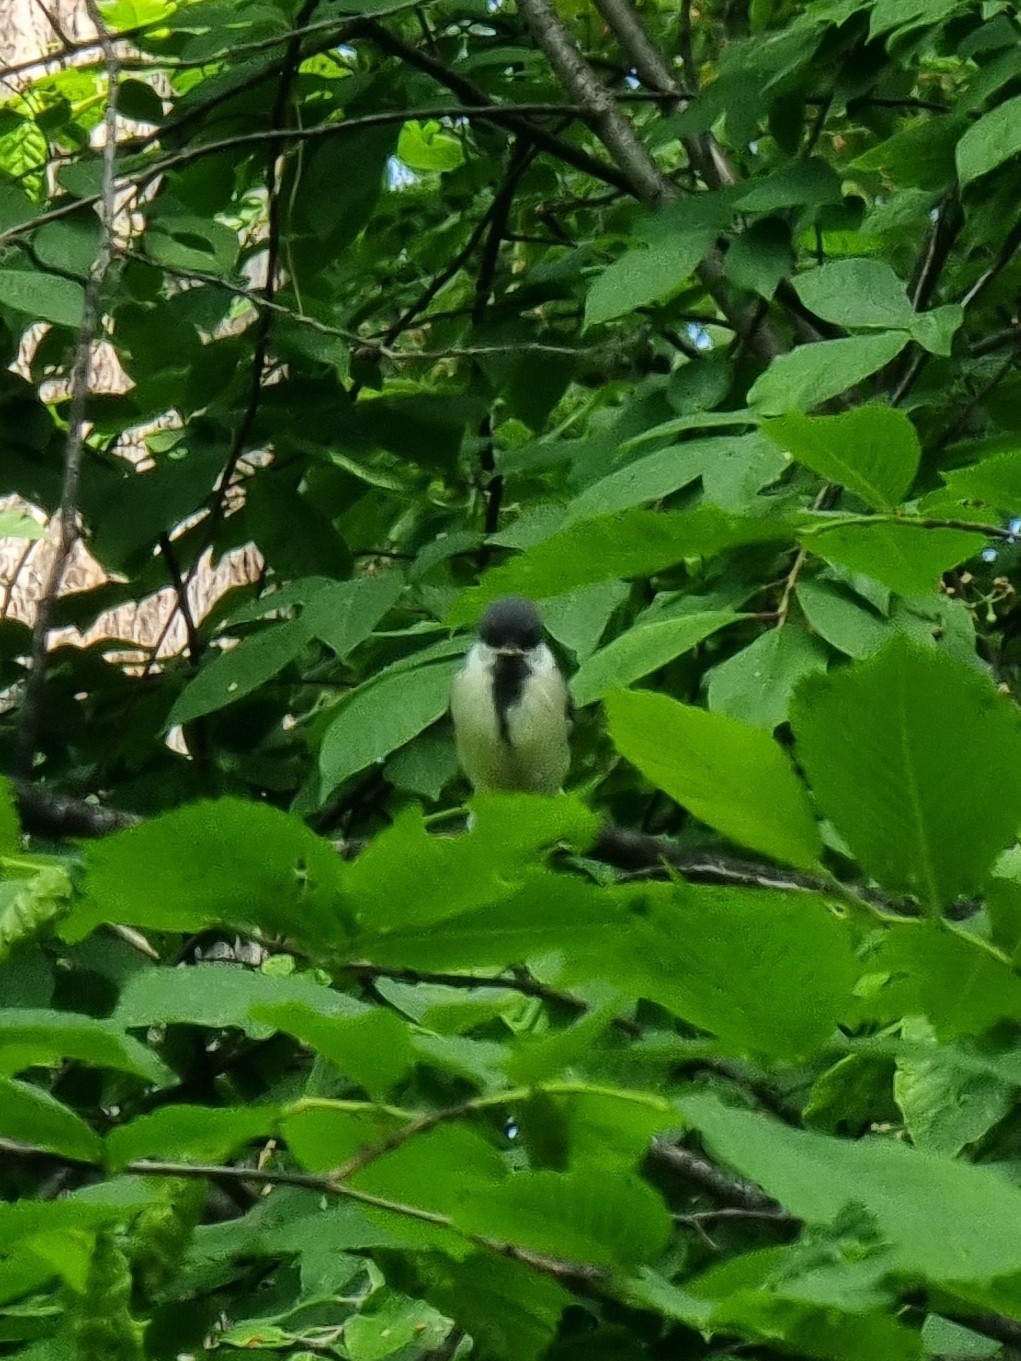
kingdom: Animalia
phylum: Chordata
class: Aves
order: Passeriformes
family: Paridae
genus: Parus
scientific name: Parus major
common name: Great tit
